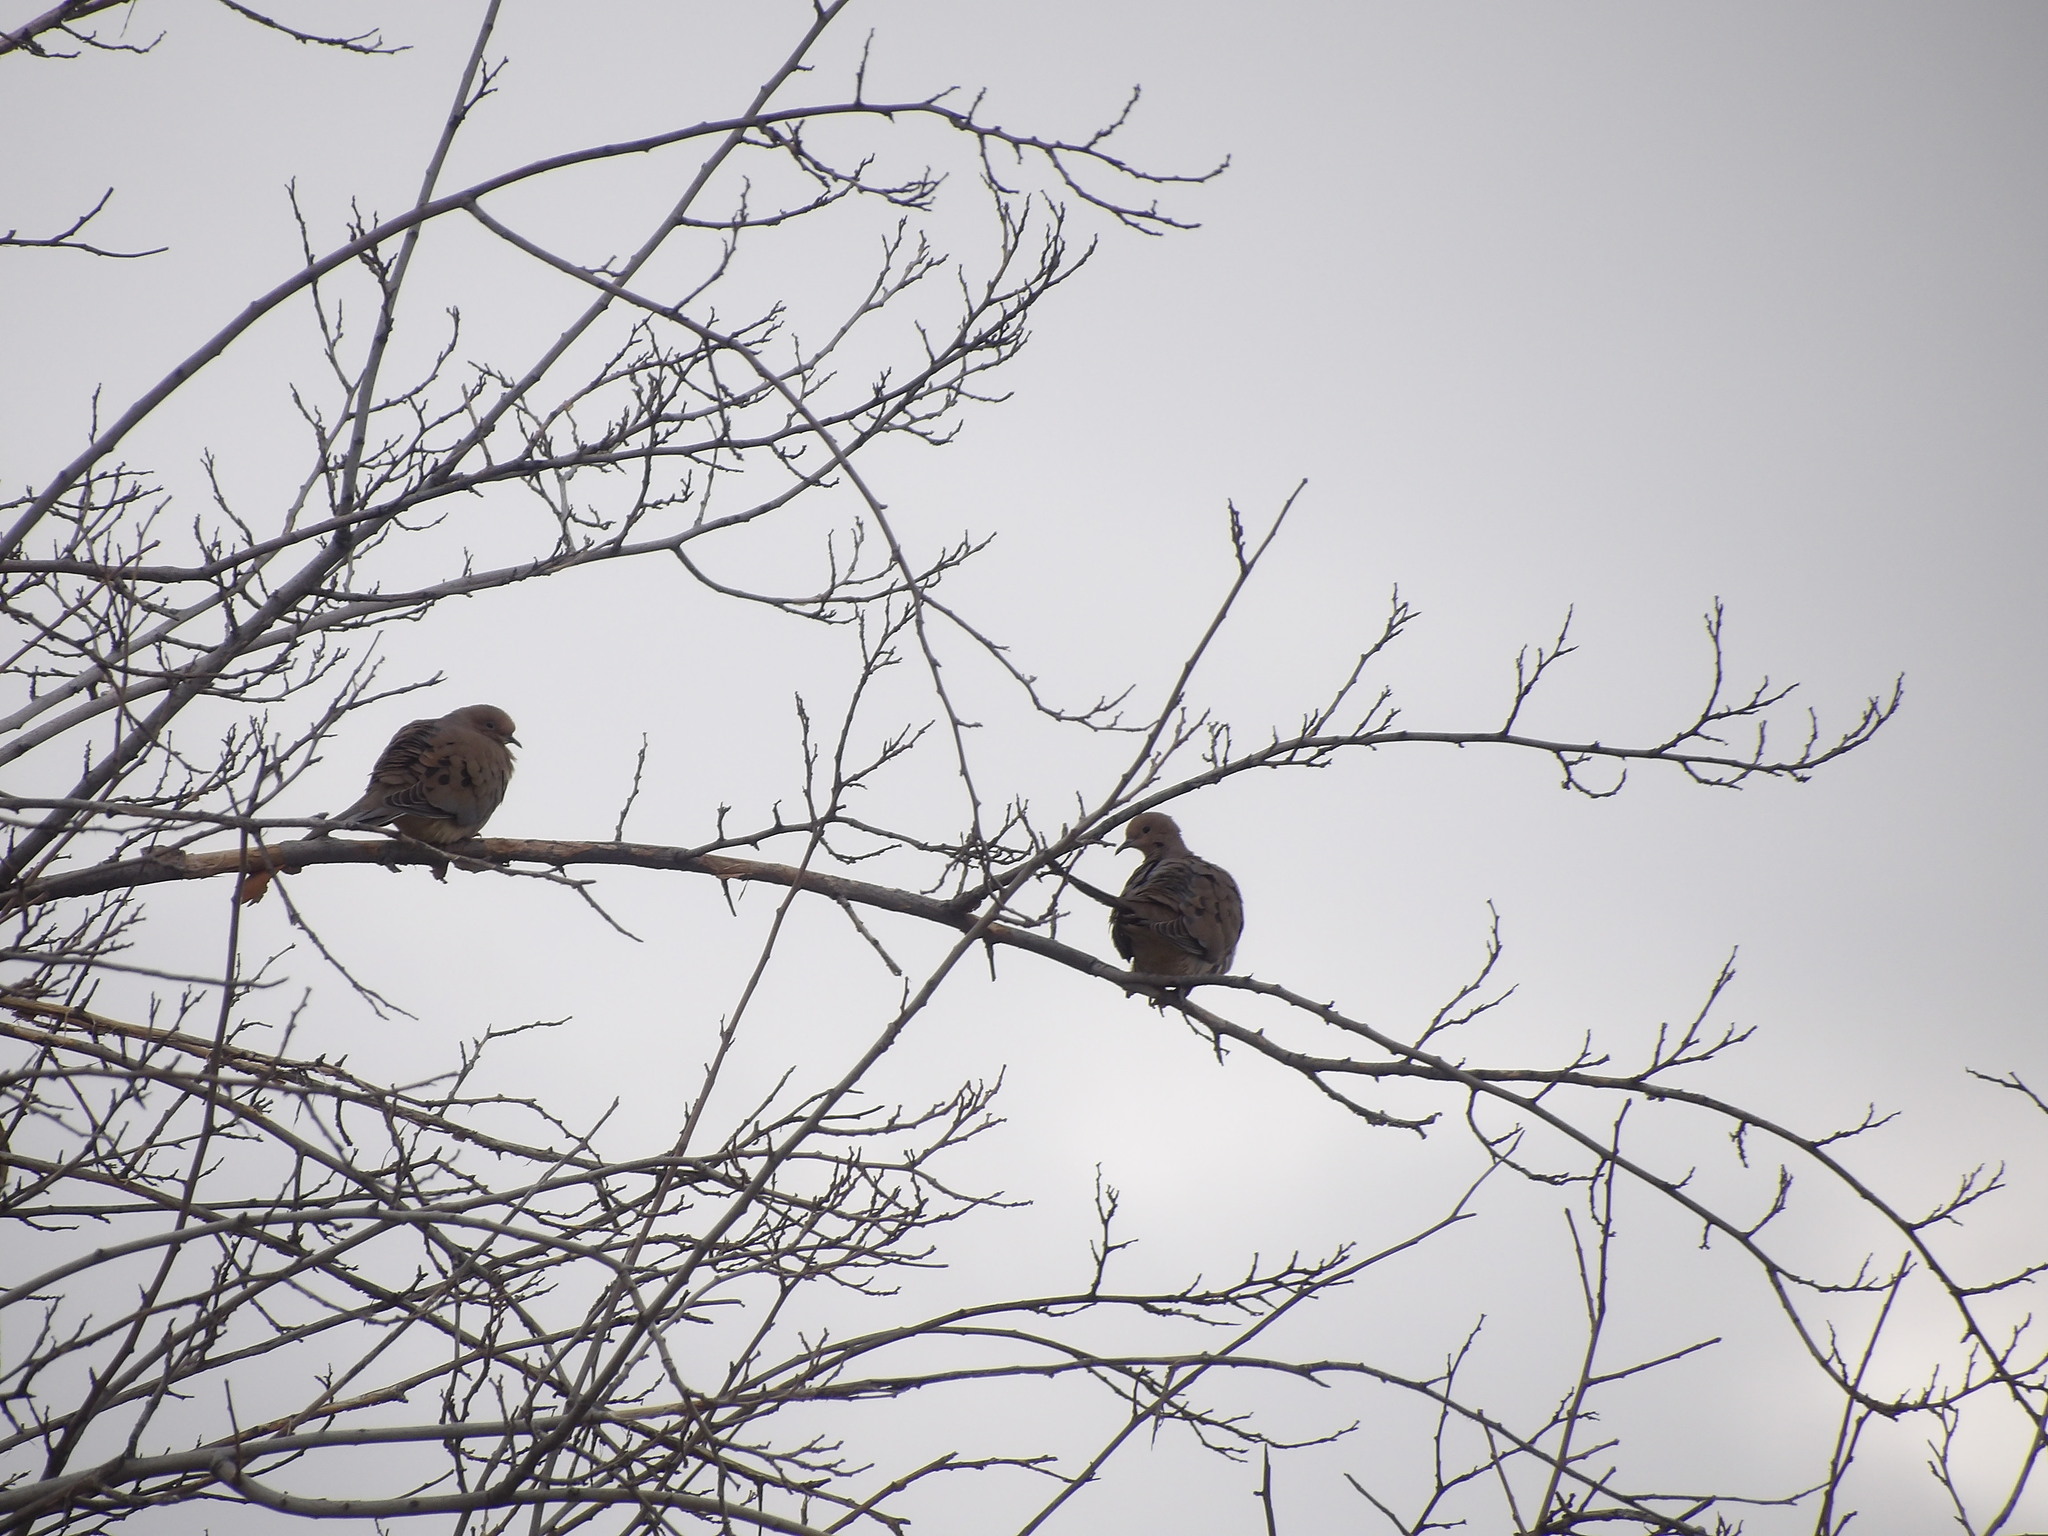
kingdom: Animalia
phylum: Chordata
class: Aves
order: Columbiformes
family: Columbidae
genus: Zenaida
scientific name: Zenaida macroura
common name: Mourning dove
